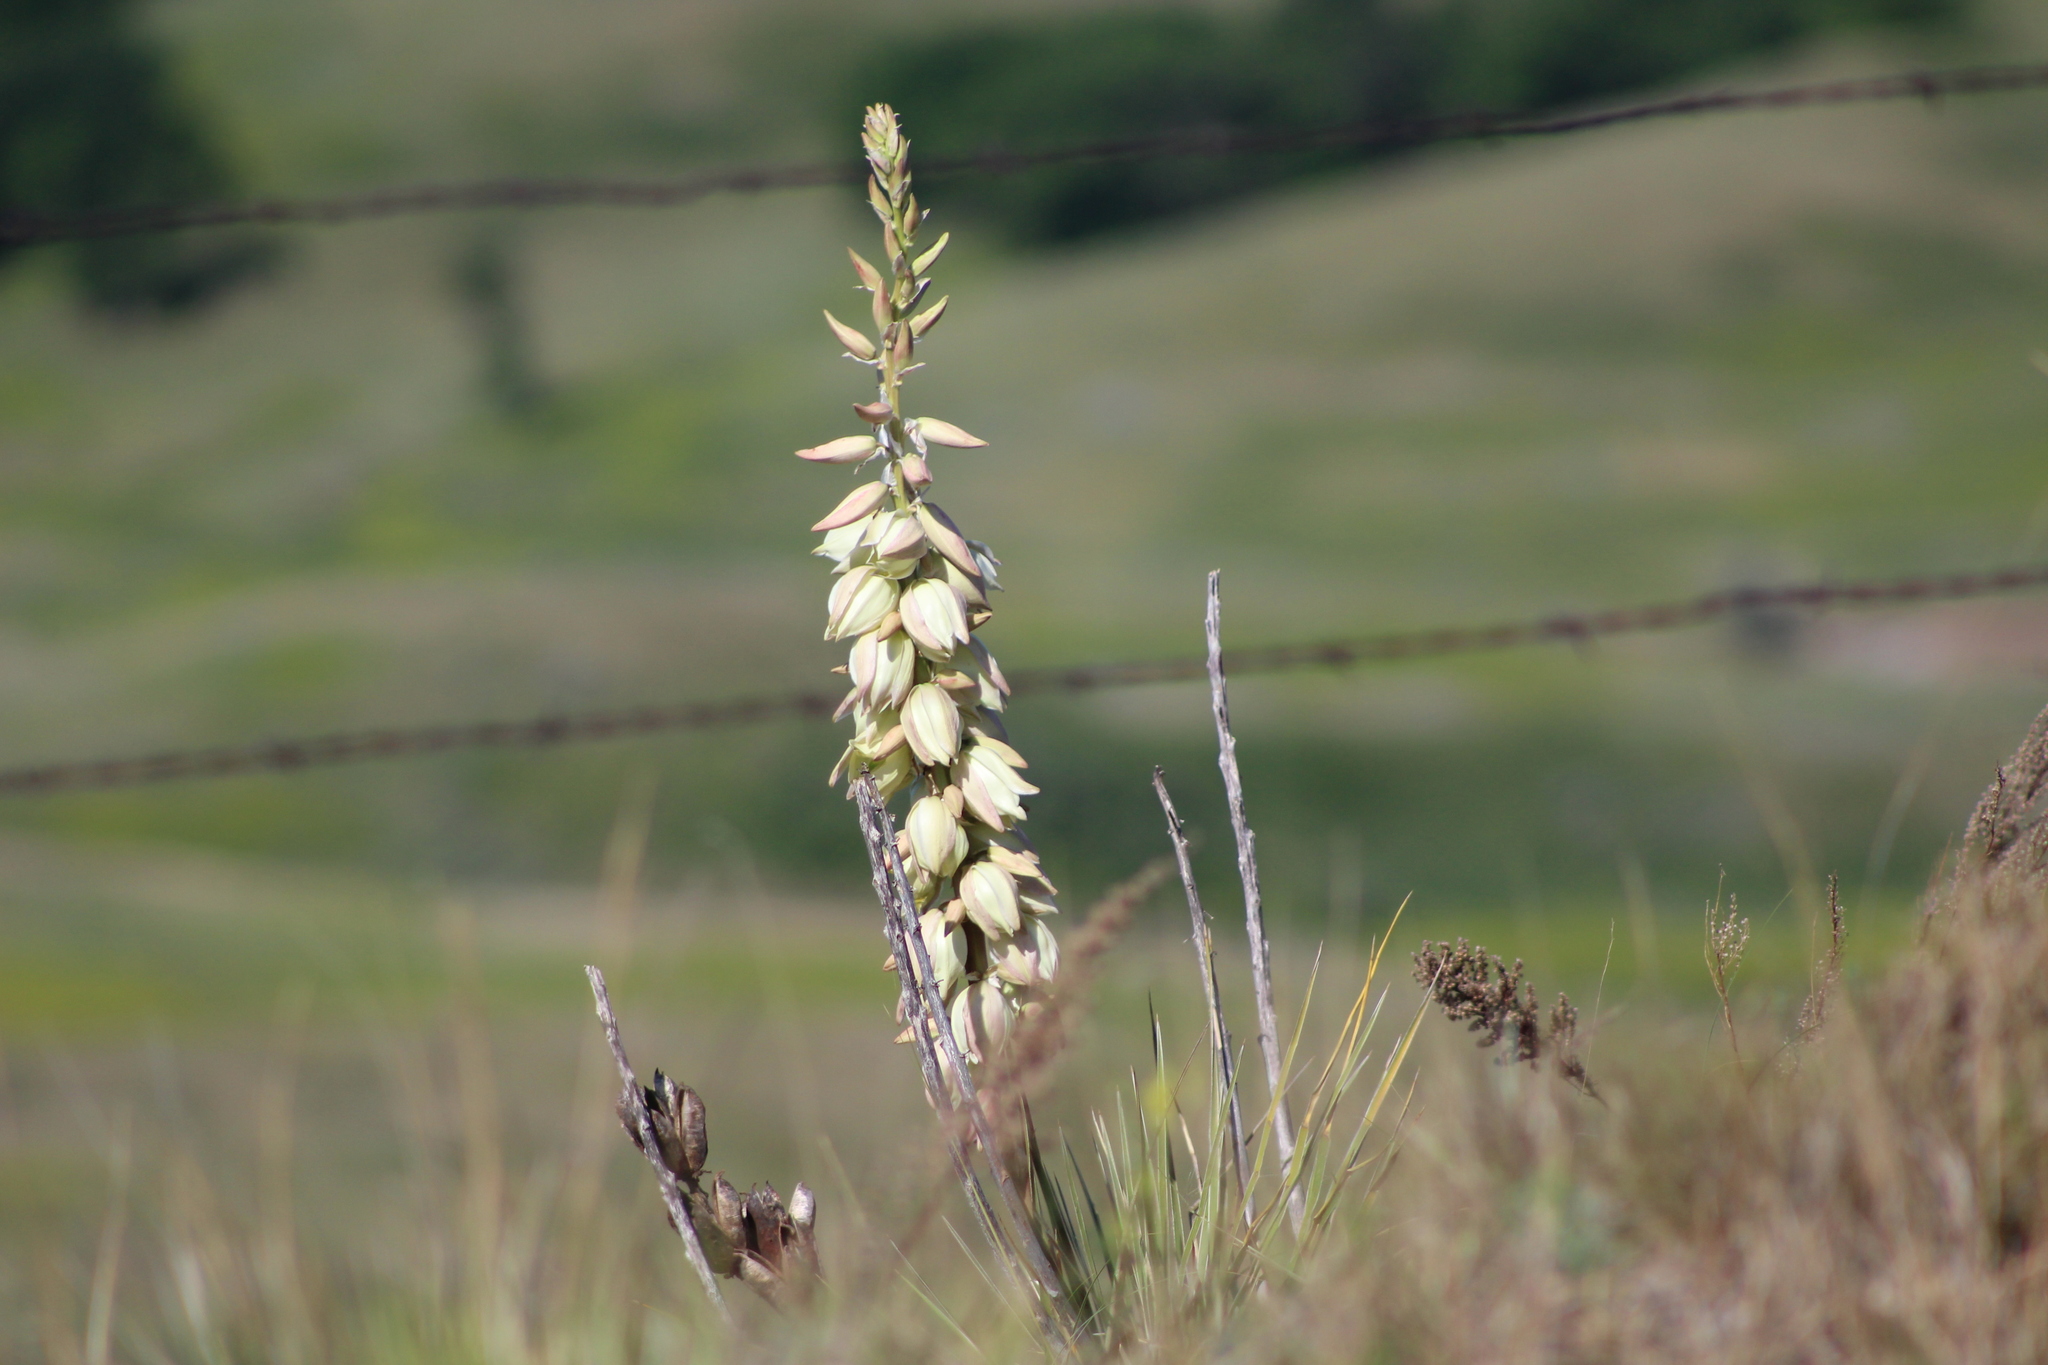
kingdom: Plantae
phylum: Tracheophyta
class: Liliopsida
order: Asparagales
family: Asparagaceae
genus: Yucca
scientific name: Yucca glauca
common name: Great plains yucca
